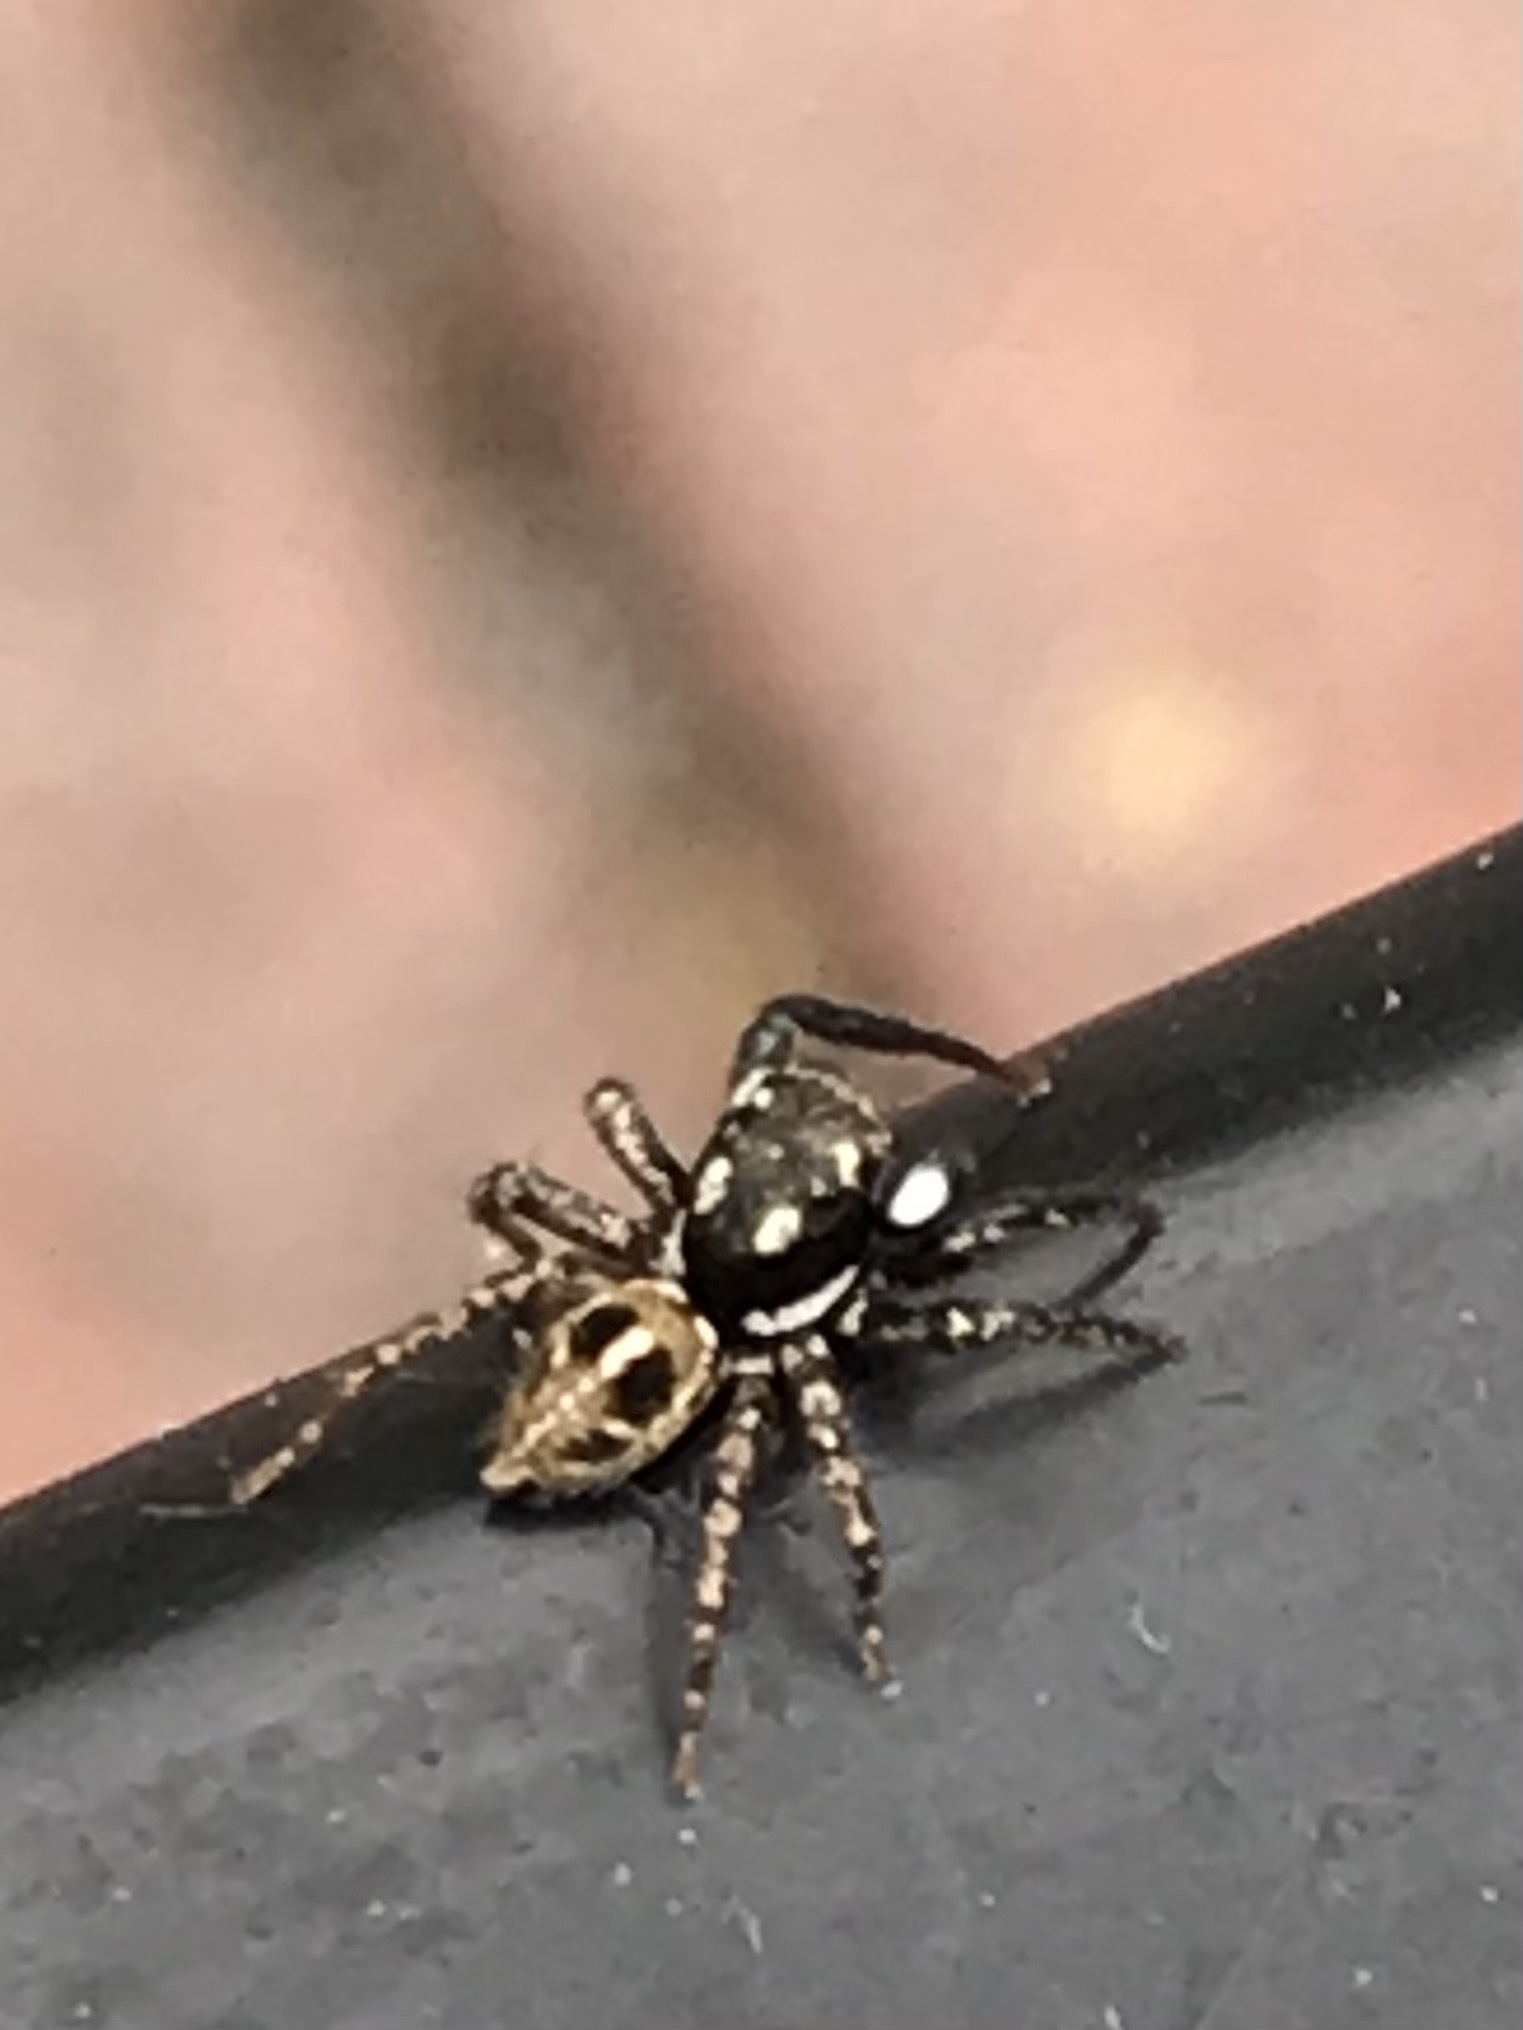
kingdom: Animalia
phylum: Arthropoda
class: Arachnida
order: Araneae
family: Salticidae
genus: Anasaitis
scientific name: Anasaitis canosa
